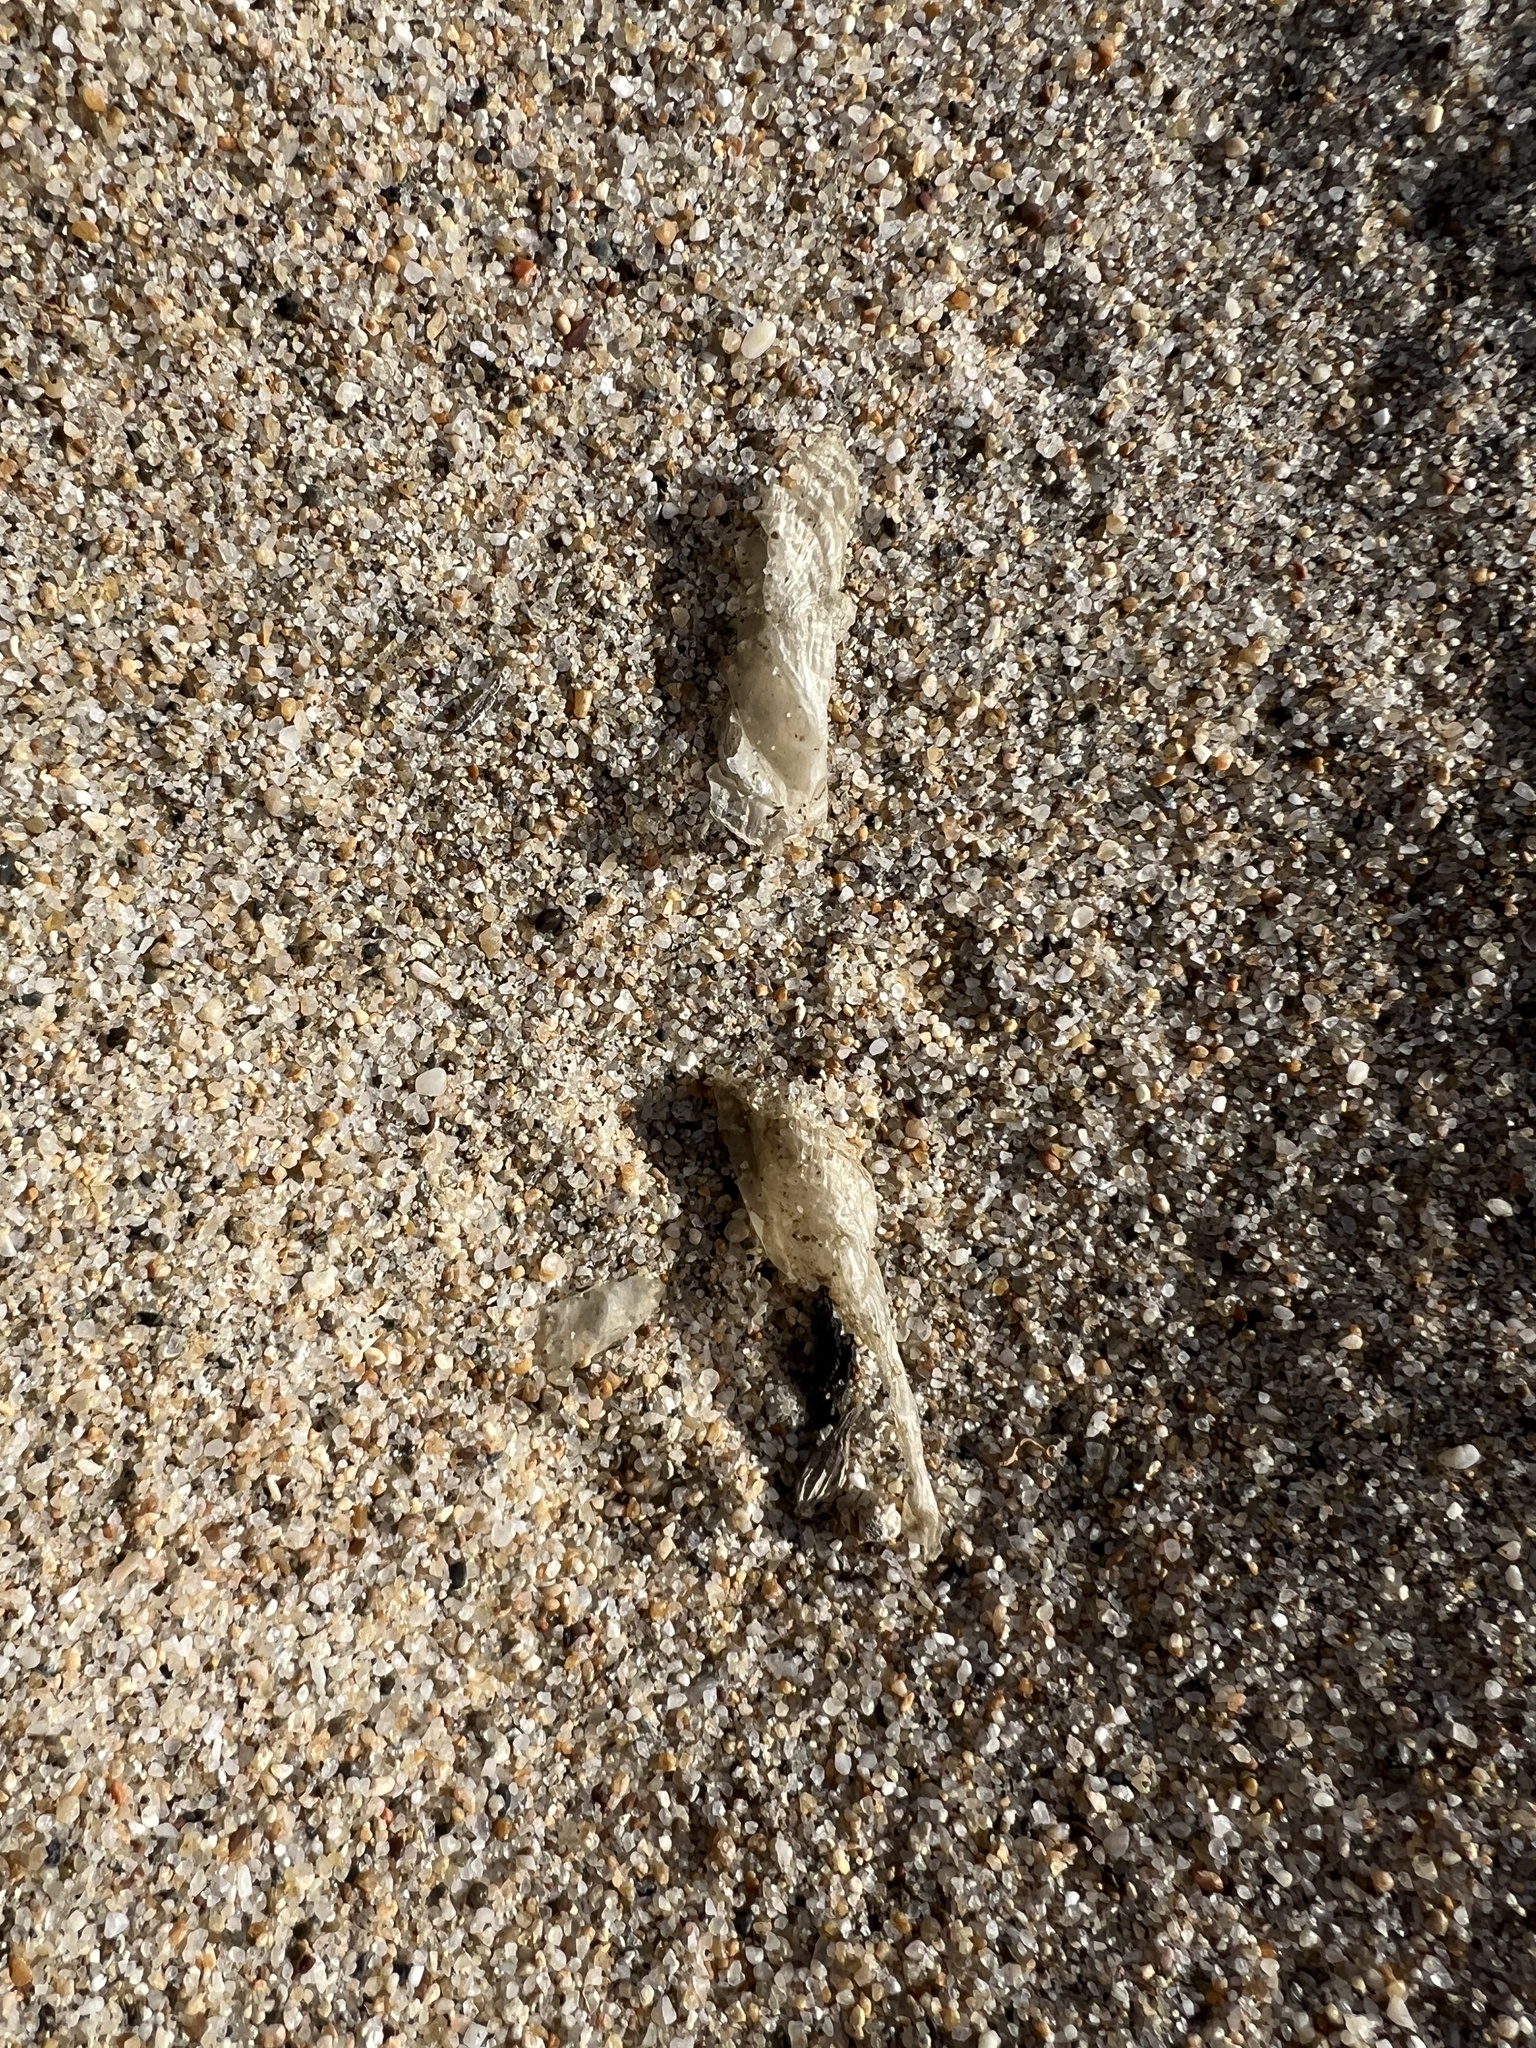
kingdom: Animalia
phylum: Cnidaria
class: Hydrozoa
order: Anthoathecata
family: Porpitidae
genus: Velella
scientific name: Velella velella
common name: By-the-wind-sailor
